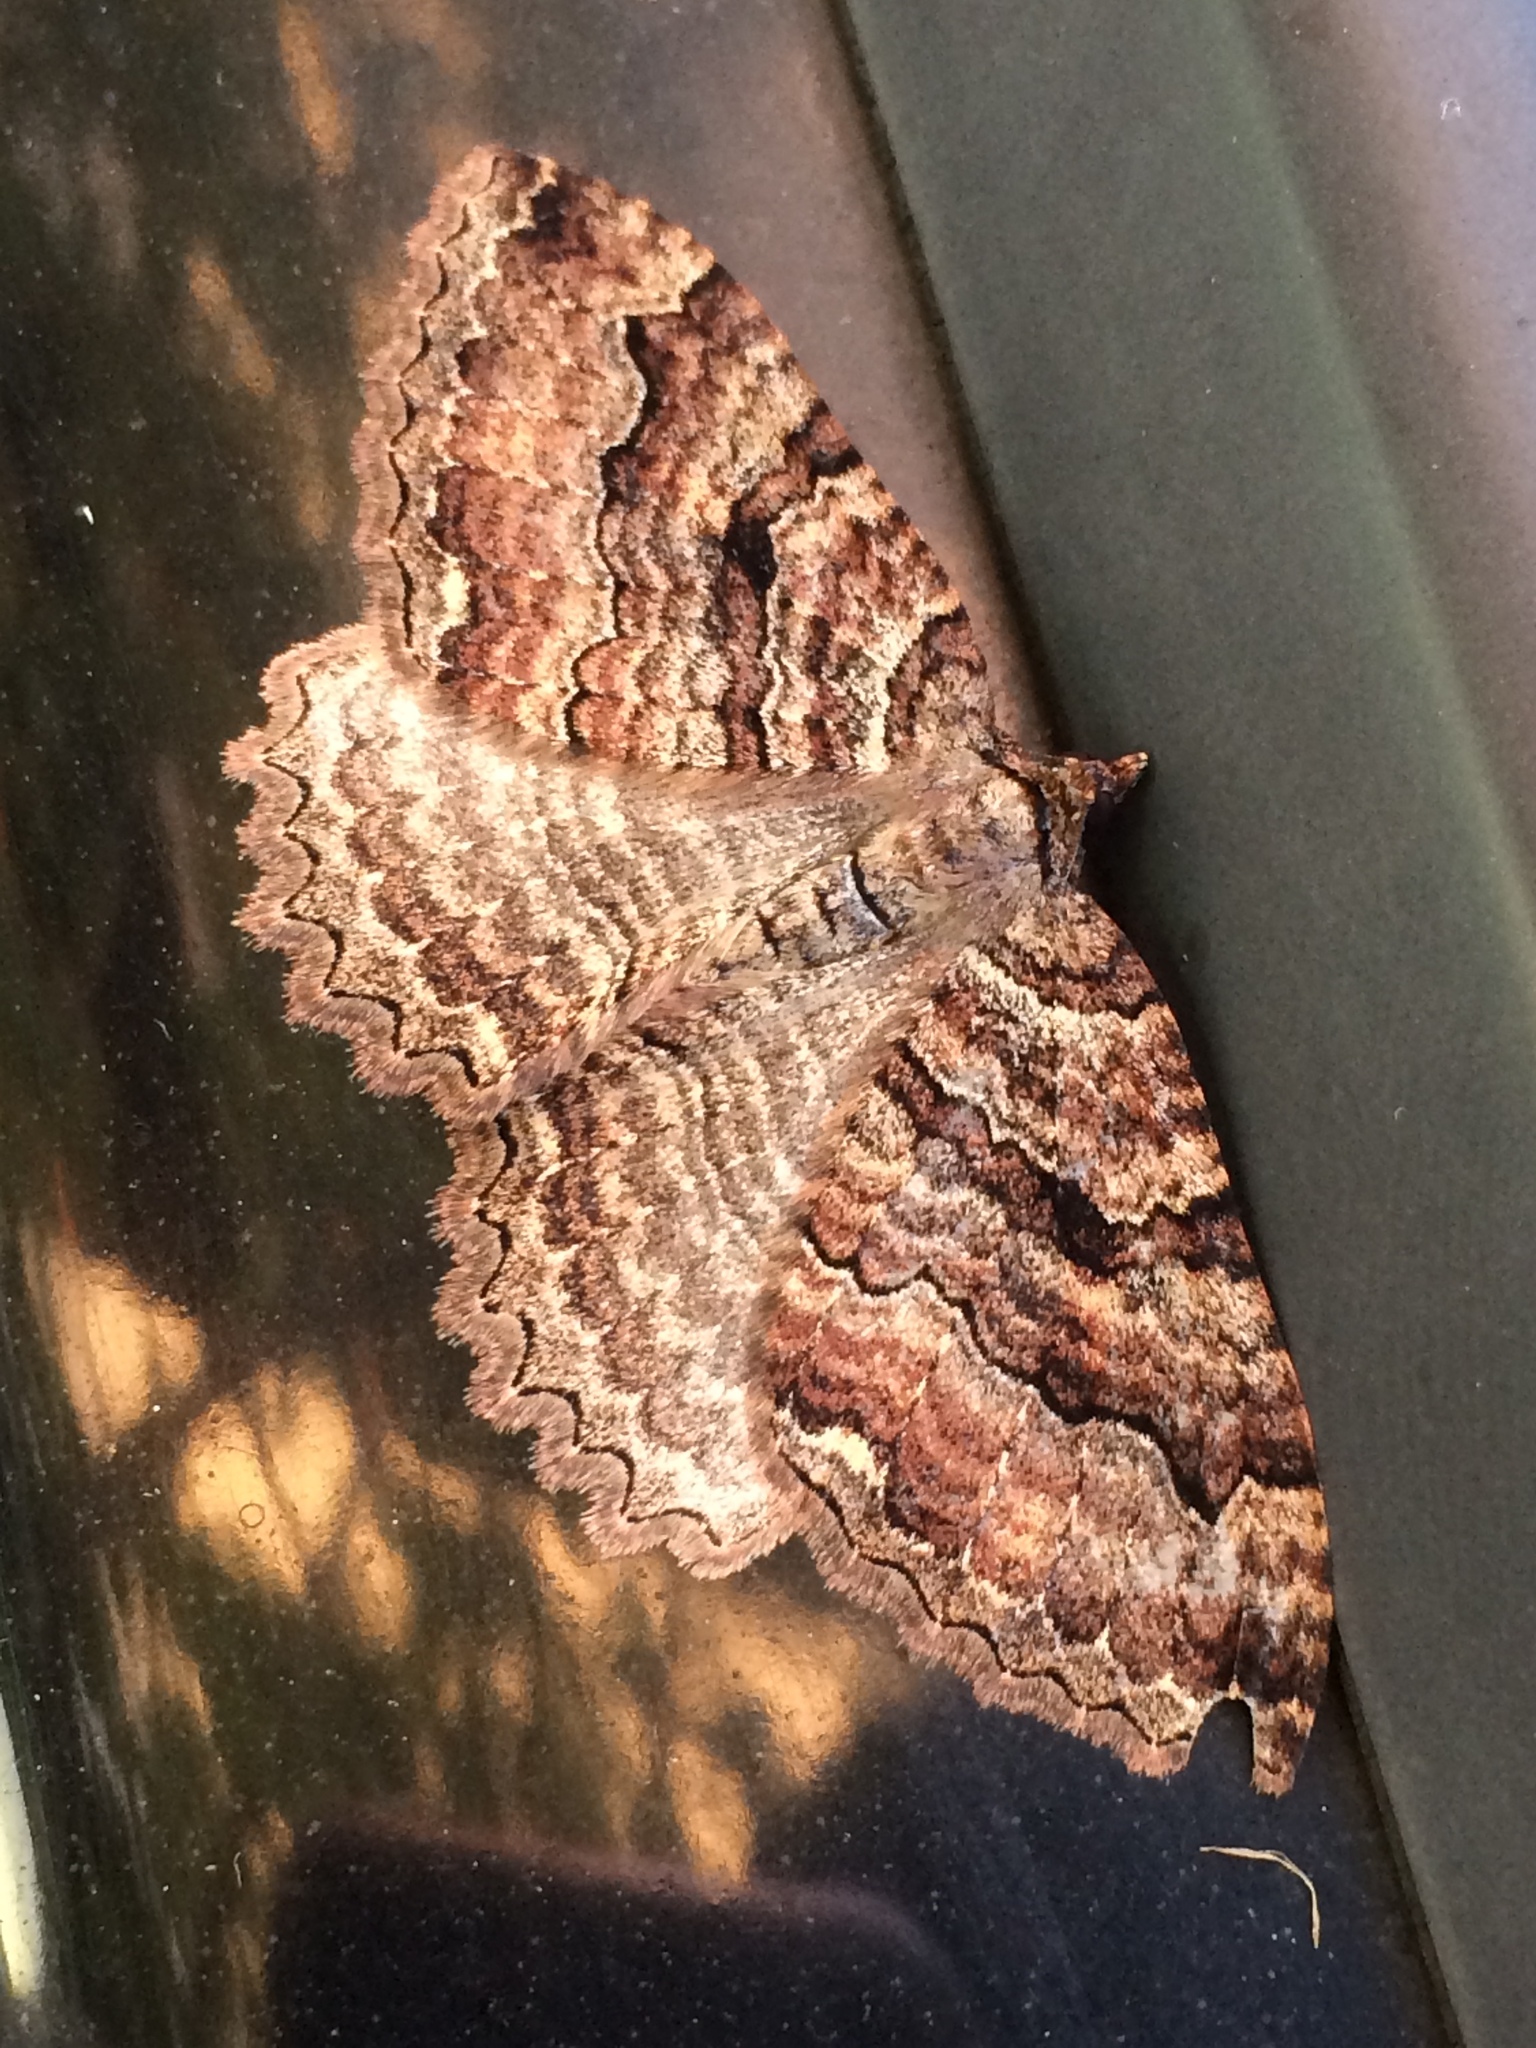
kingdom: Animalia
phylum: Arthropoda
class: Insecta
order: Lepidoptera
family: Geometridae
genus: Triphosa
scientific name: Triphosa haesitata
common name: Tissue moth
